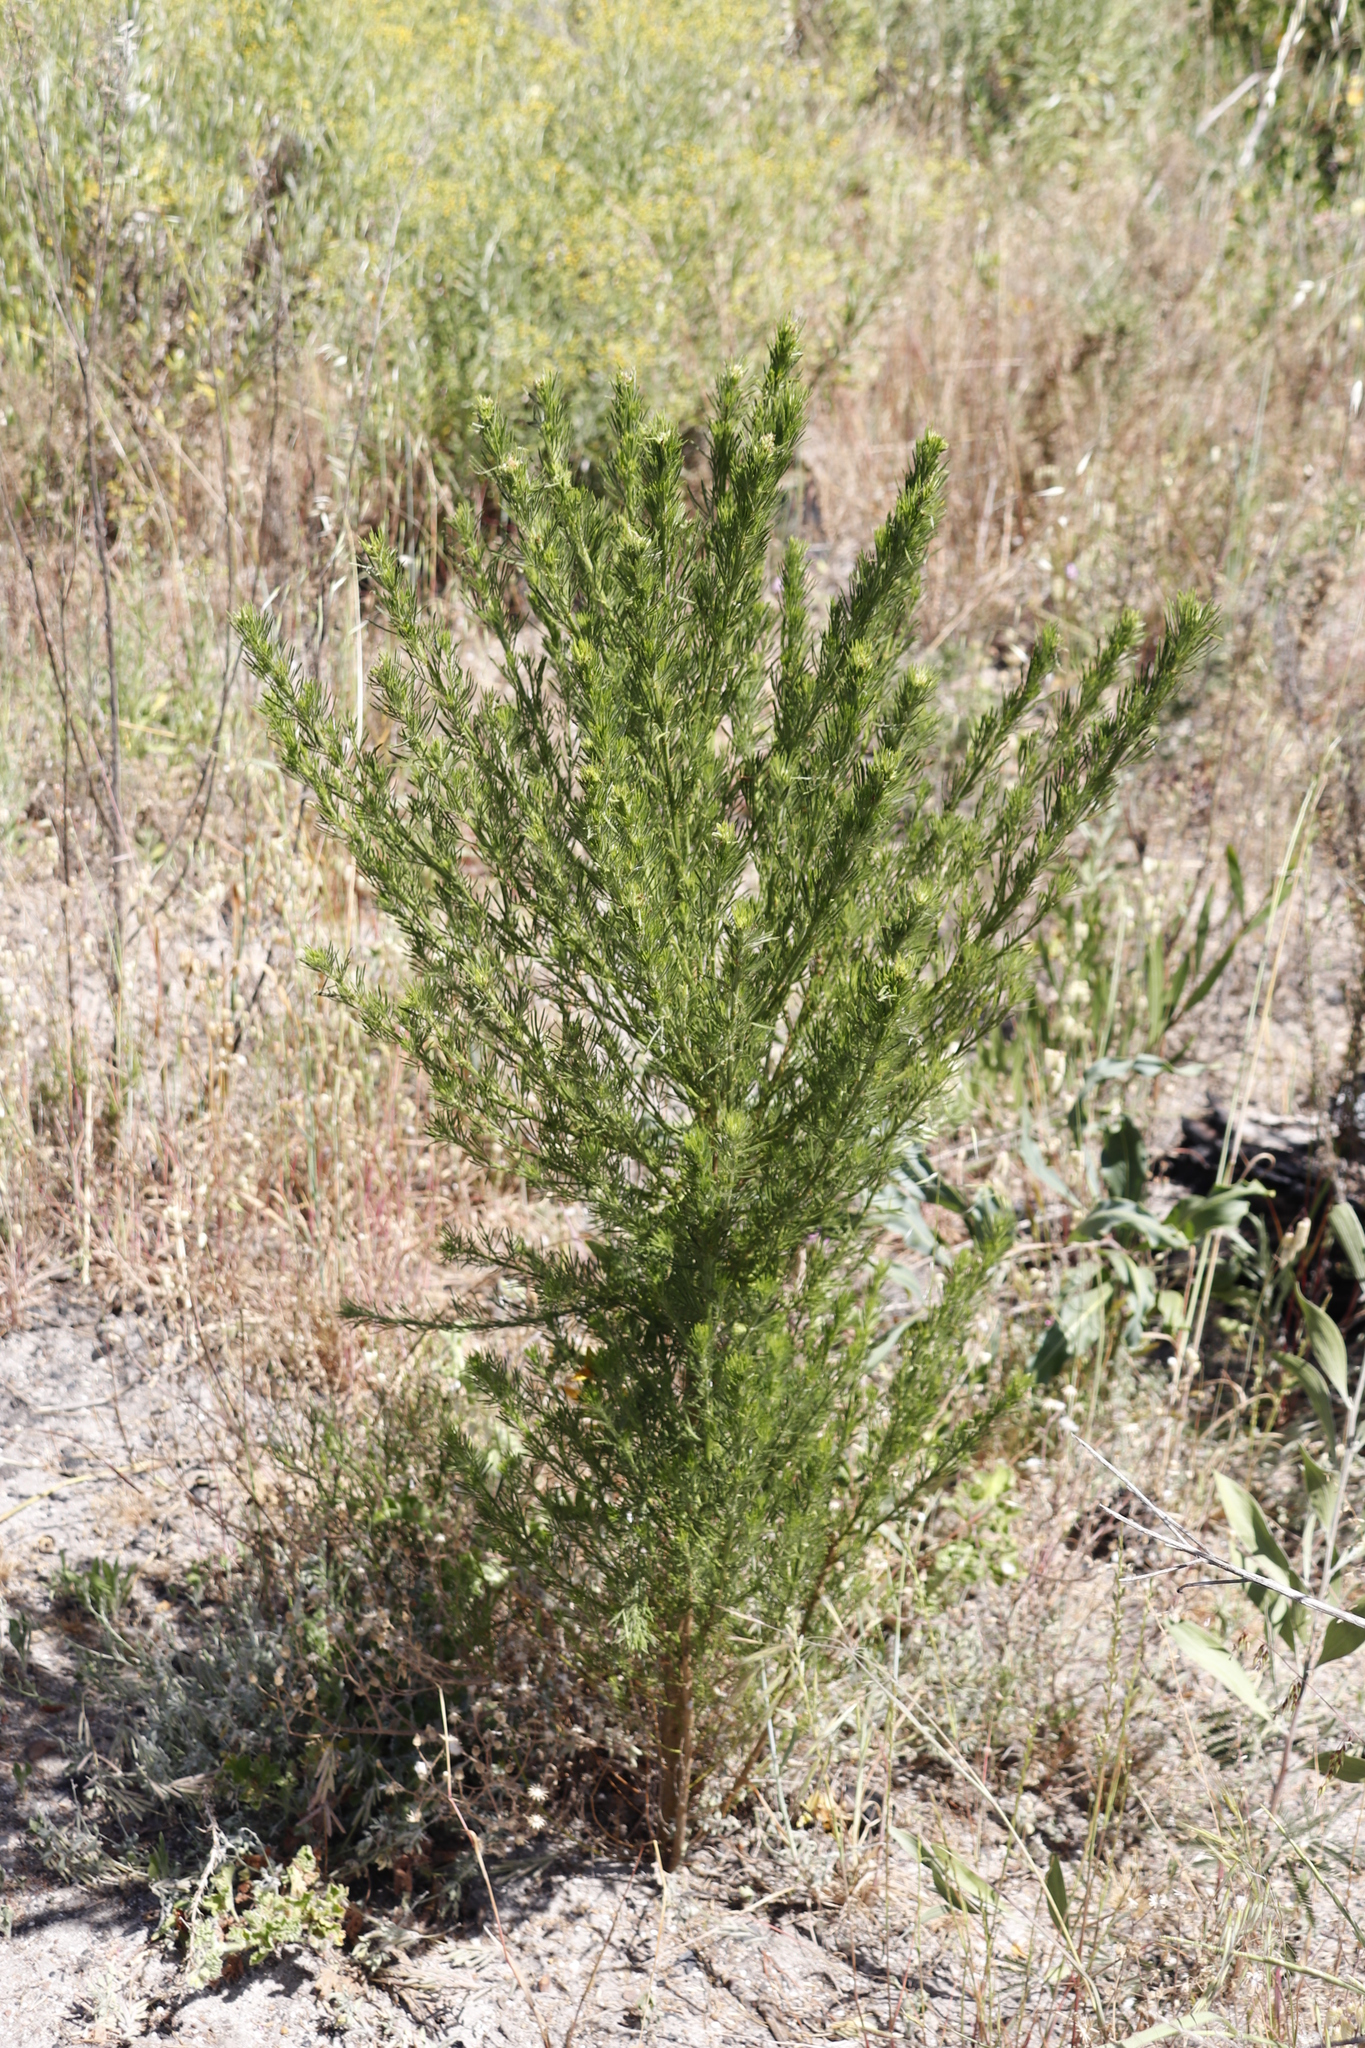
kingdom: Plantae
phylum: Tracheophyta
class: Magnoliopsida
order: Fabales
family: Fabaceae
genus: Psoralea
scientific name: Psoralea pinnata
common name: African scurfpea
